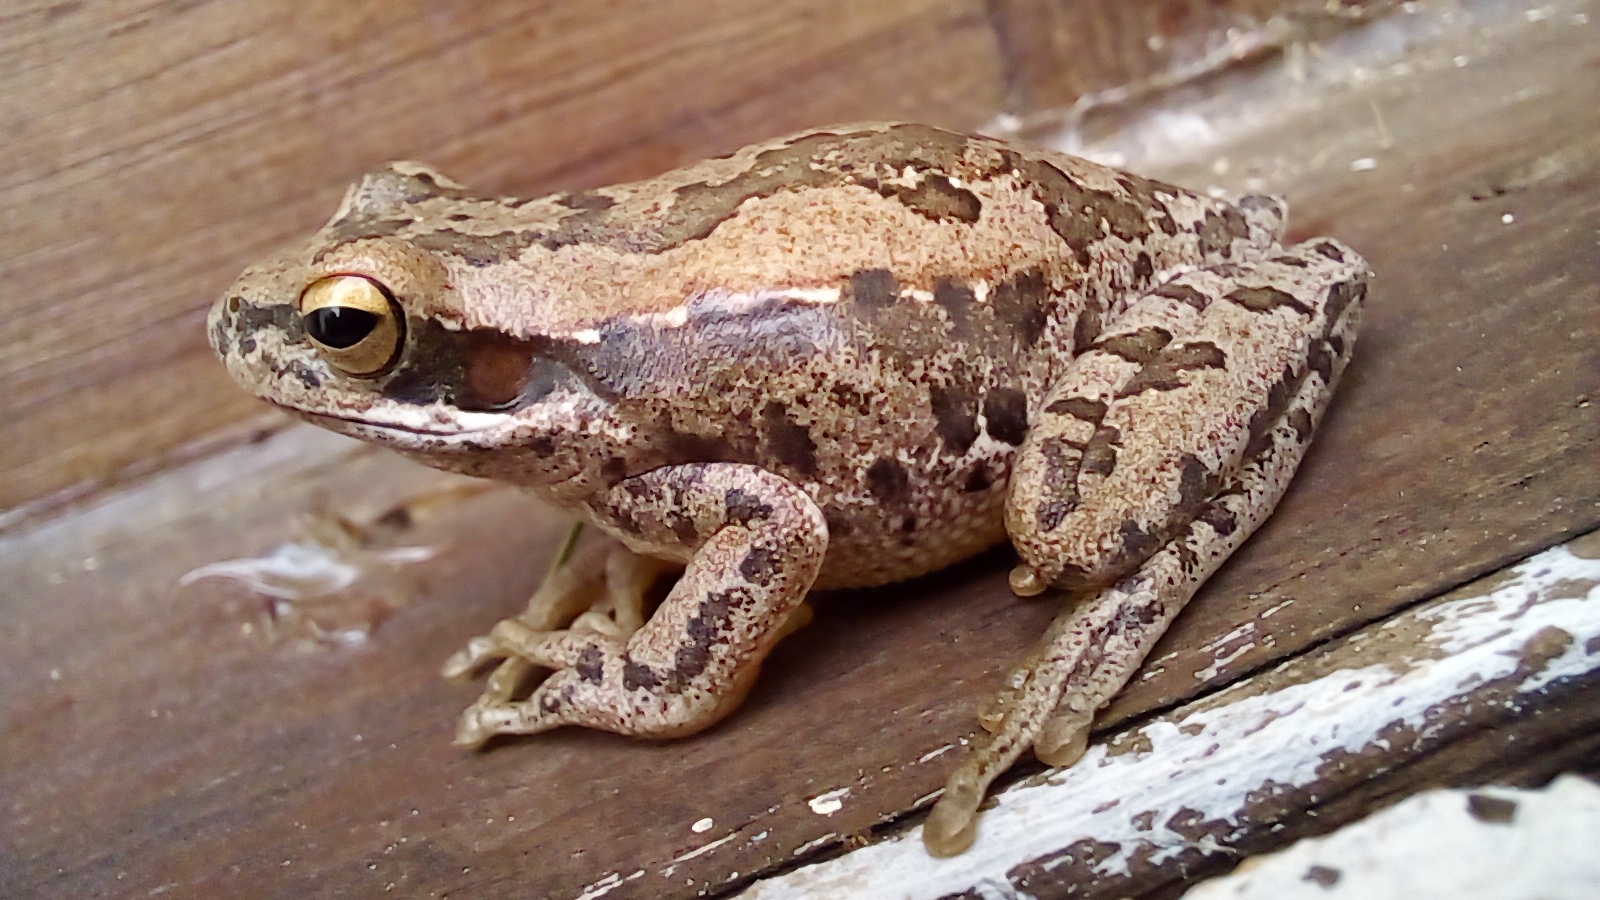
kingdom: Animalia
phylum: Chordata
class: Amphibia
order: Anura
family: Hylidae
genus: Boana
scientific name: Boana pulchella
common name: Montevideo treefrog
